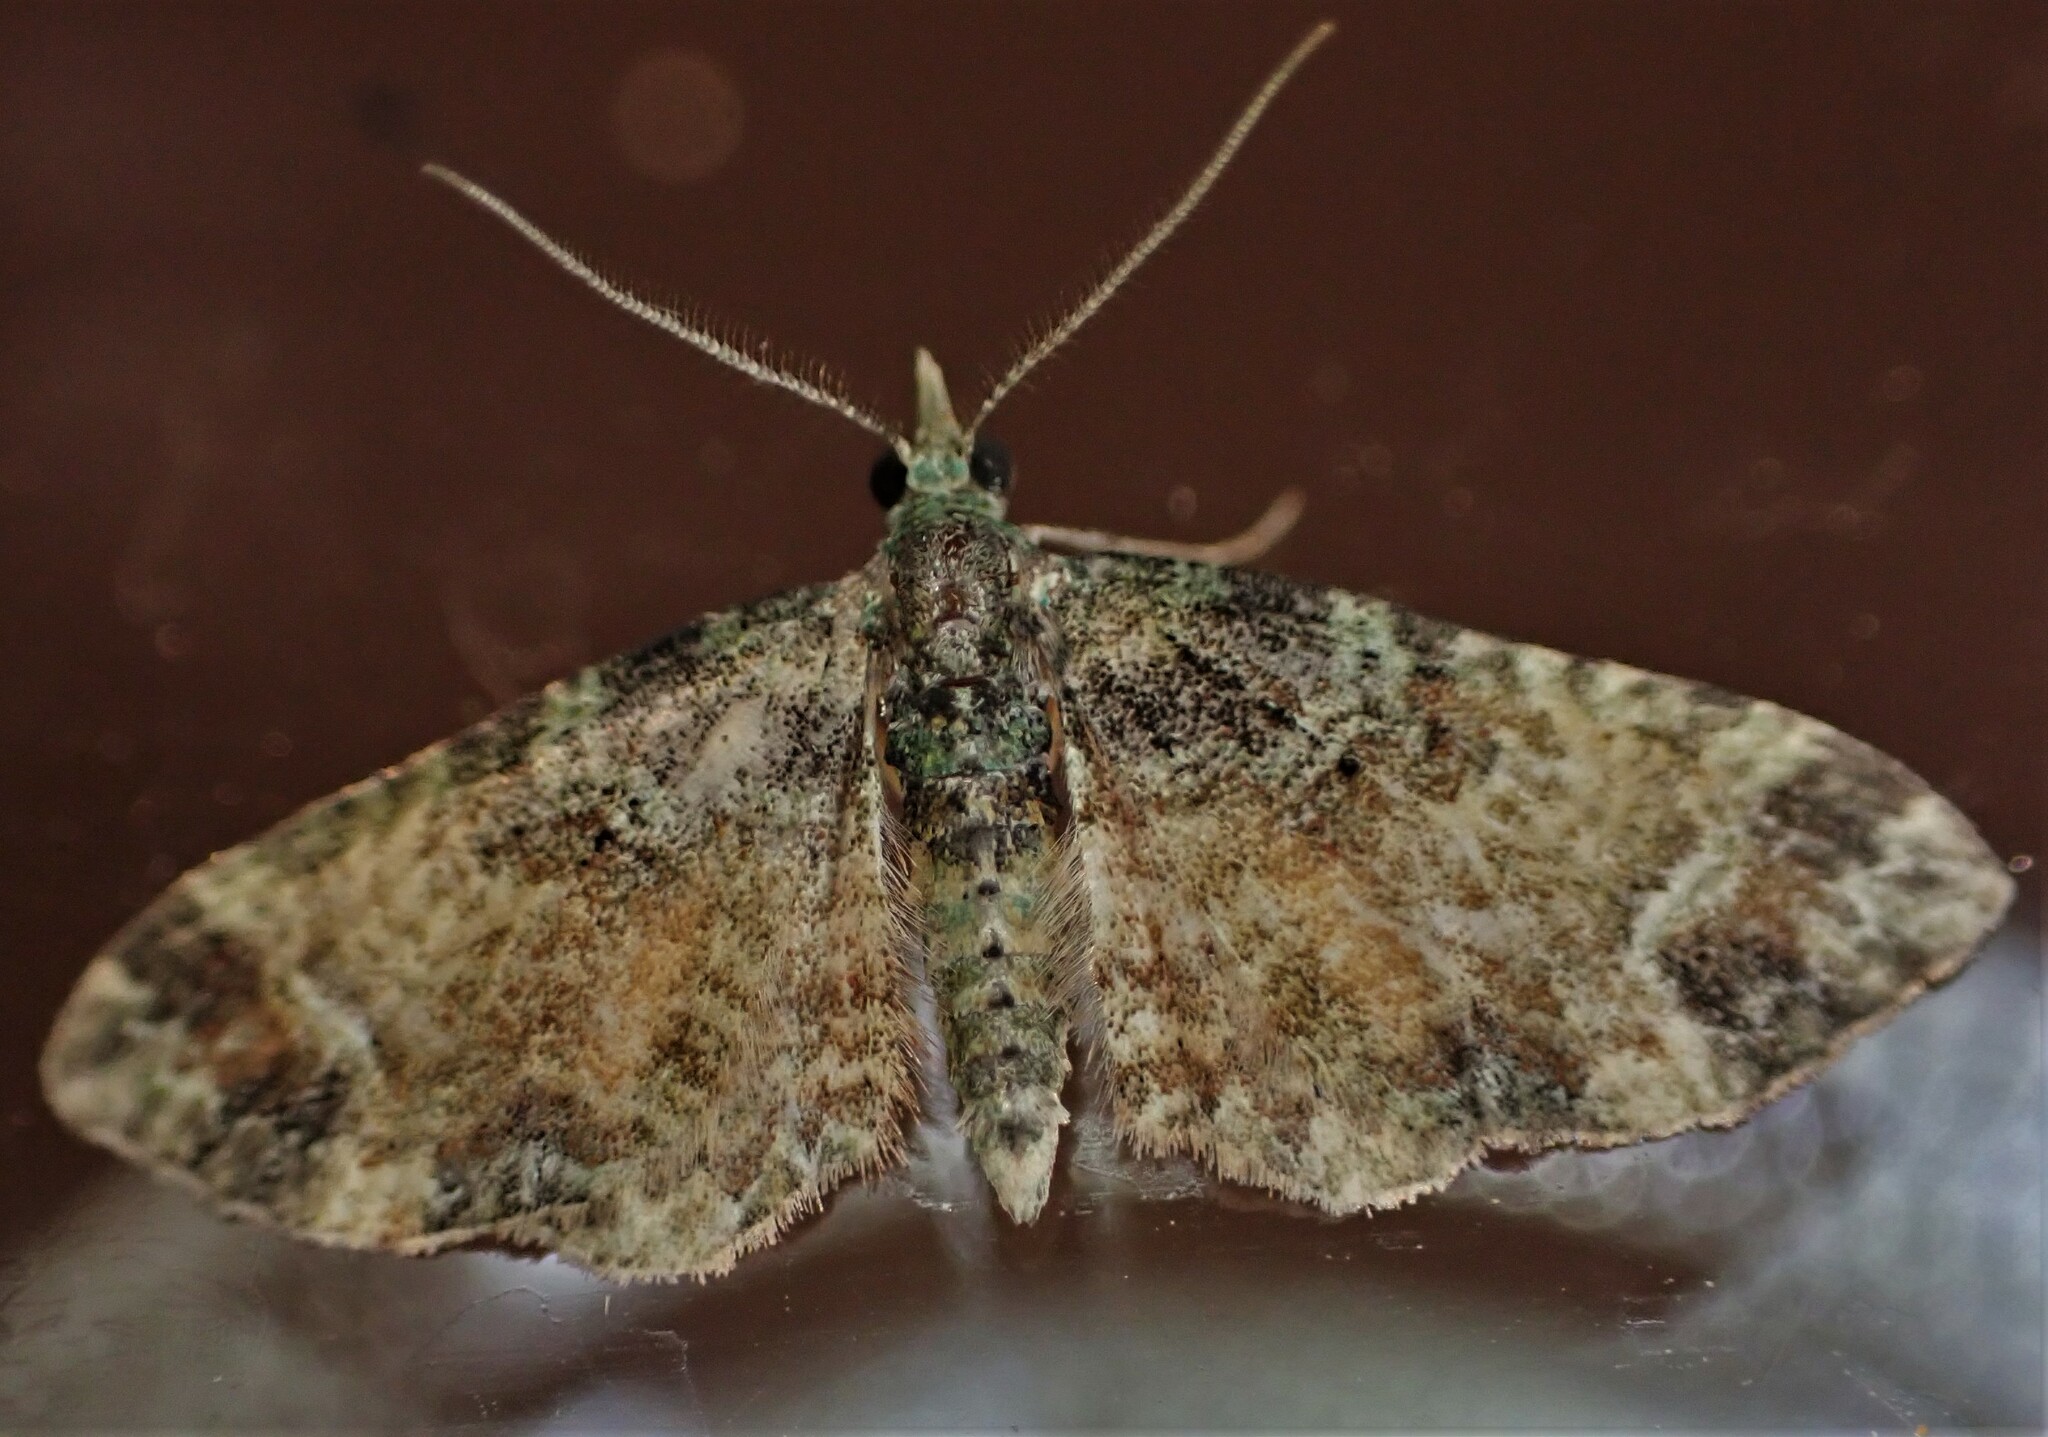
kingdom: Animalia
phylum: Arthropoda
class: Insecta
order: Lepidoptera
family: Geometridae
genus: Idaea
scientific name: Idaea mutanda
